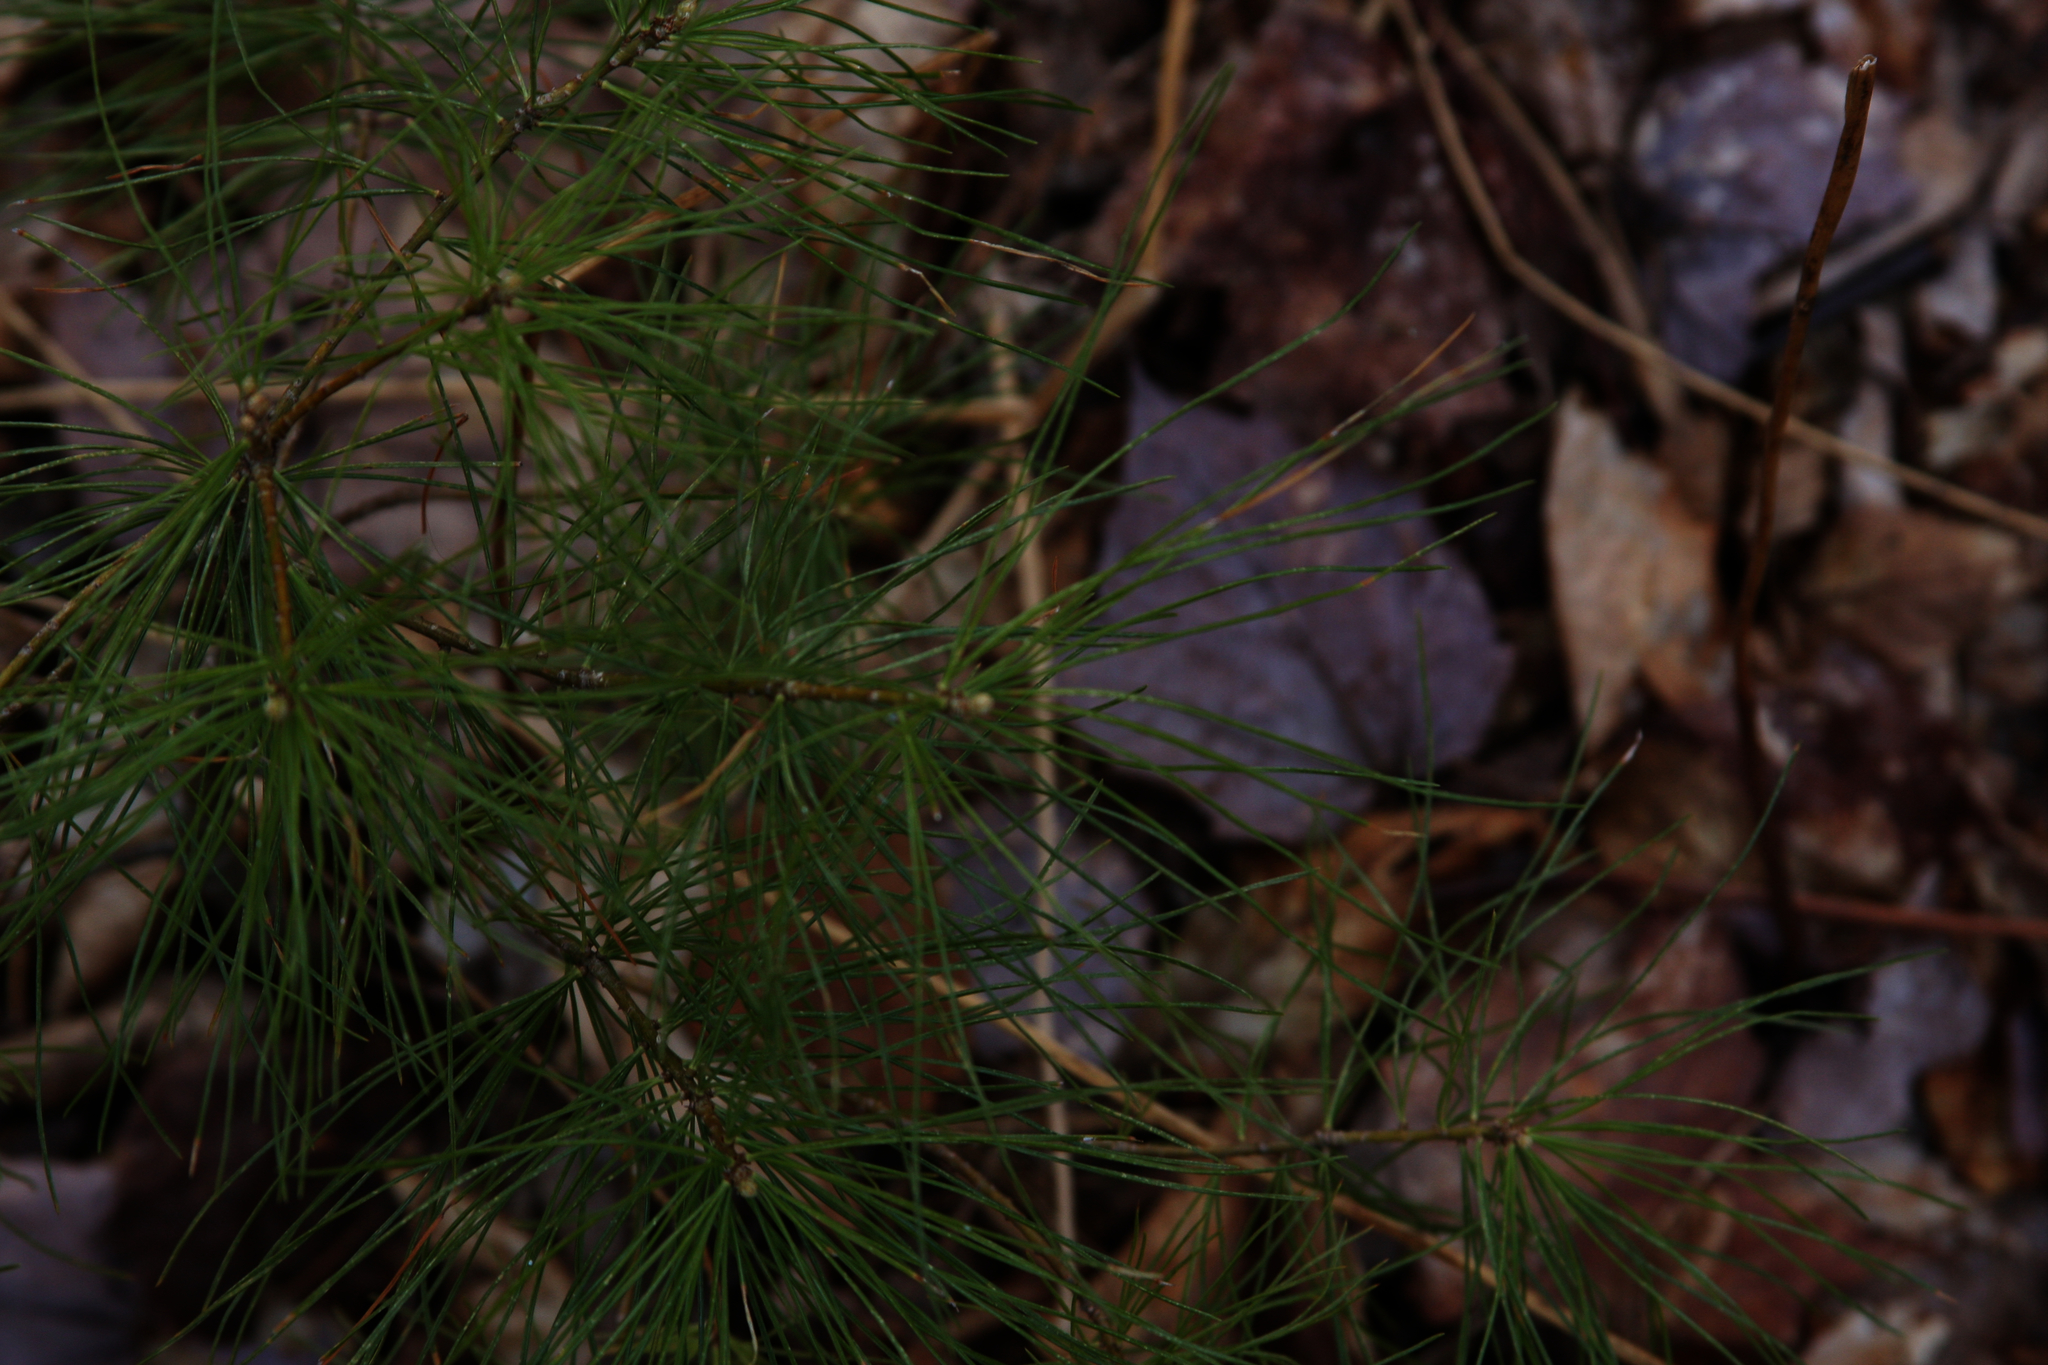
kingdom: Plantae
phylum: Tracheophyta
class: Pinopsida
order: Pinales
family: Pinaceae
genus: Pinus
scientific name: Pinus strobus
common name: Weymouth pine
